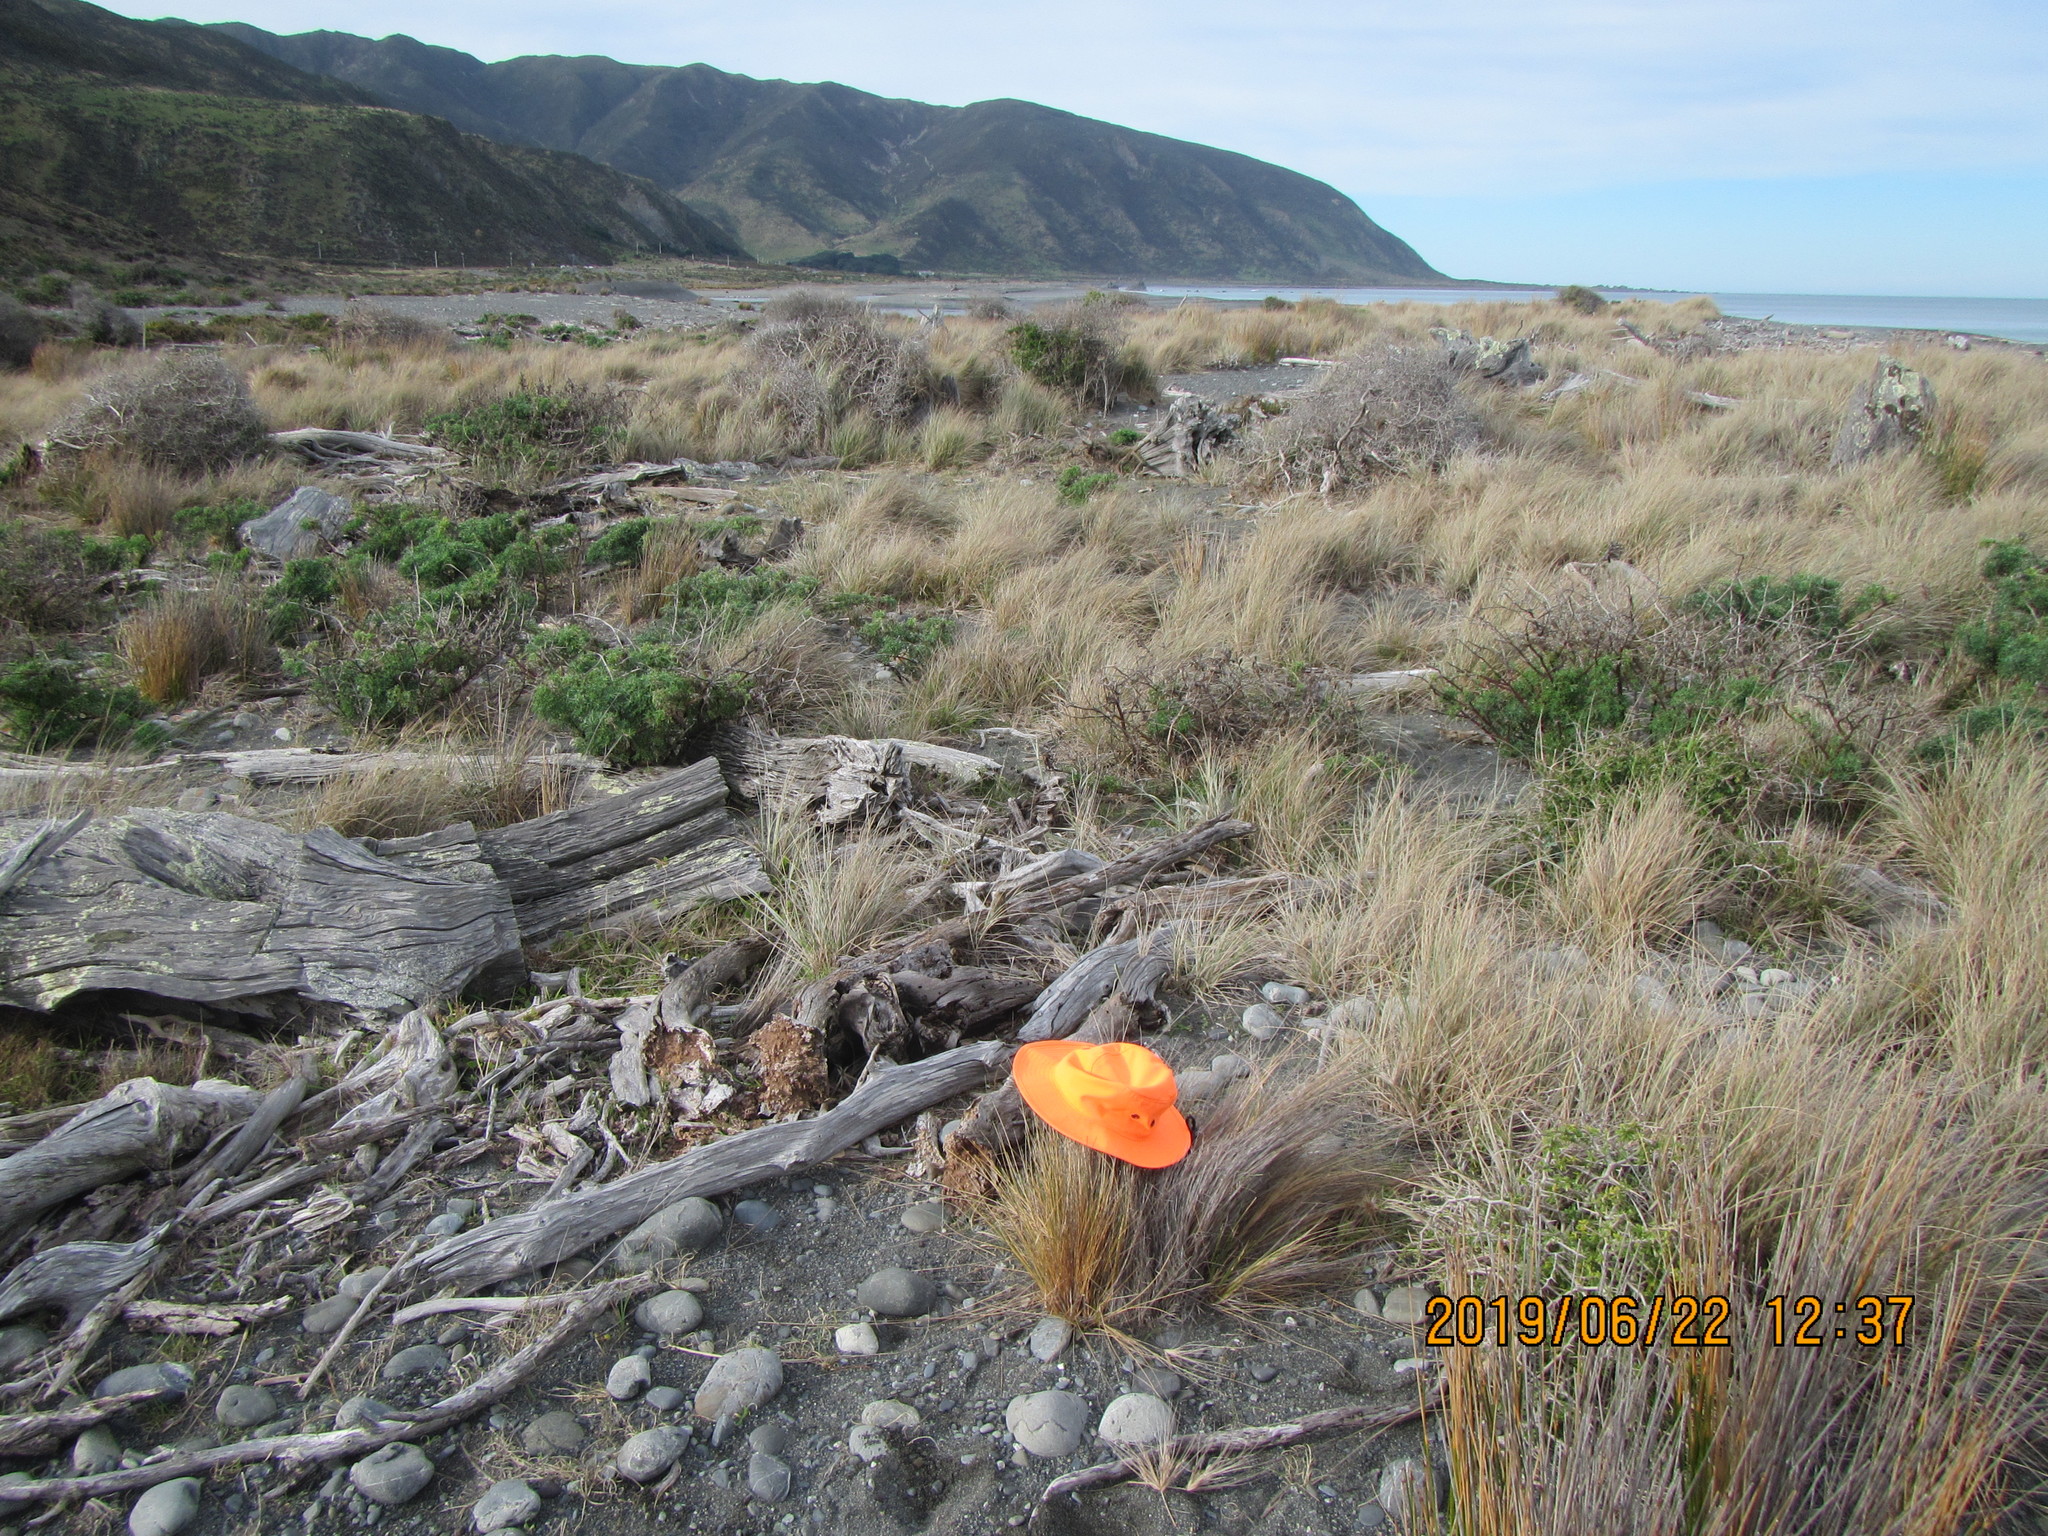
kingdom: Plantae
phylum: Tracheophyta
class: Liliopsida
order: Poales
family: Poaceae
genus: Poa
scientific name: Poa billardierei
